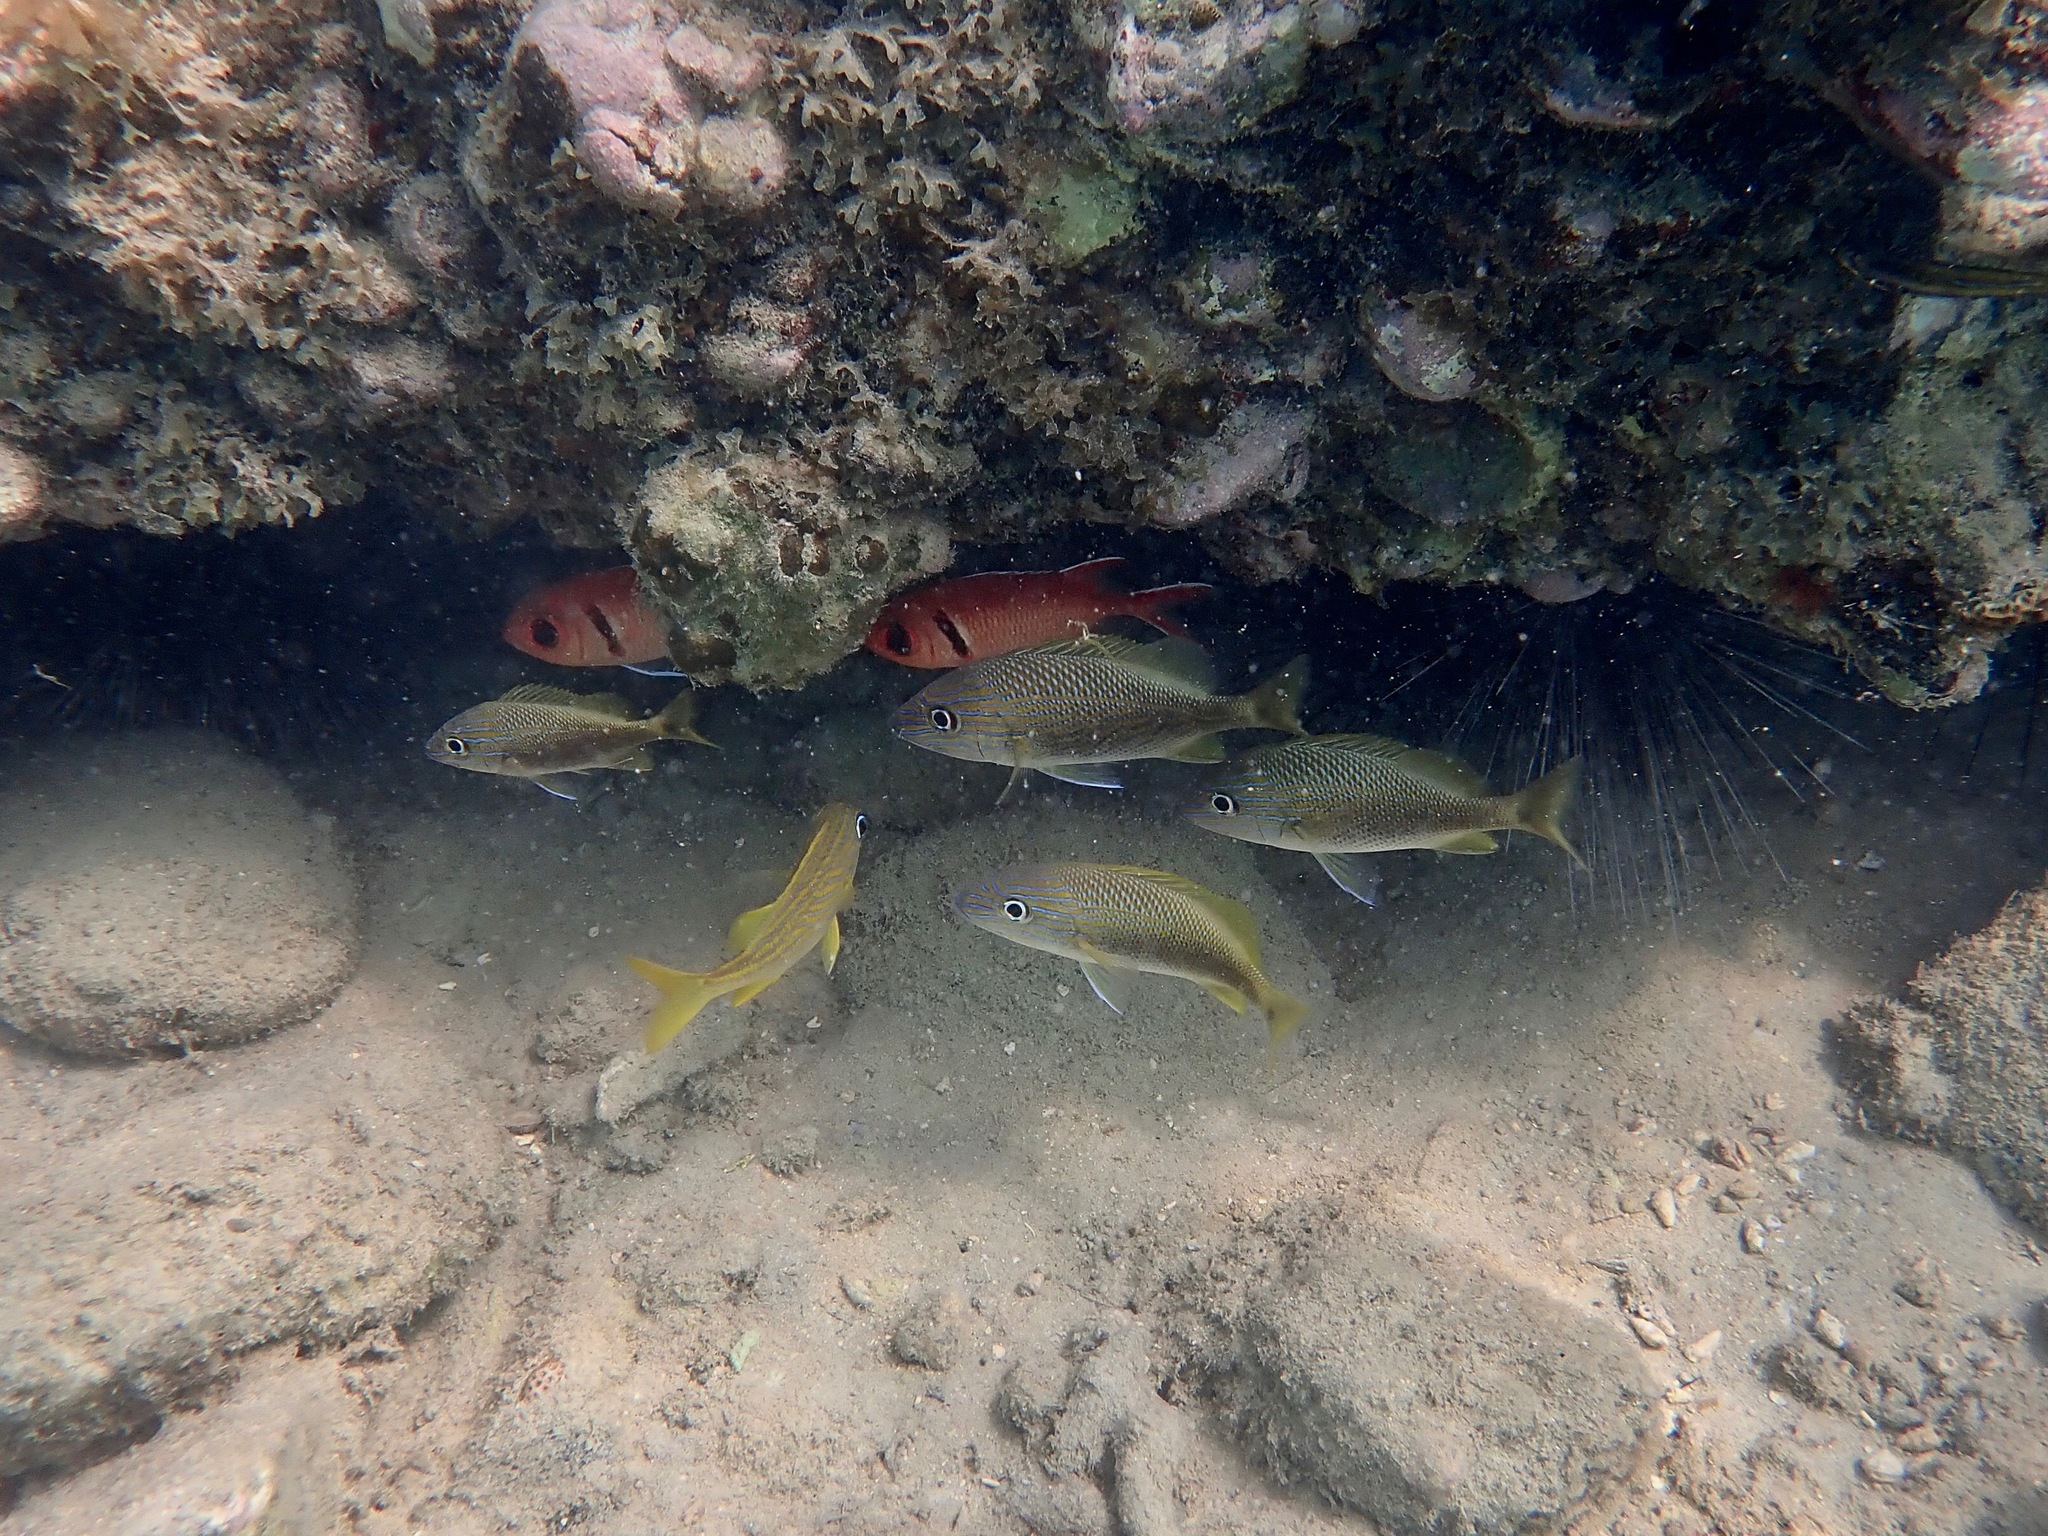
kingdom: Animalia
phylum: Chordata
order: Perciformes
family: Haemulidae
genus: Haemulon
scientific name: Haemulon plumierii
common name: White grunt
